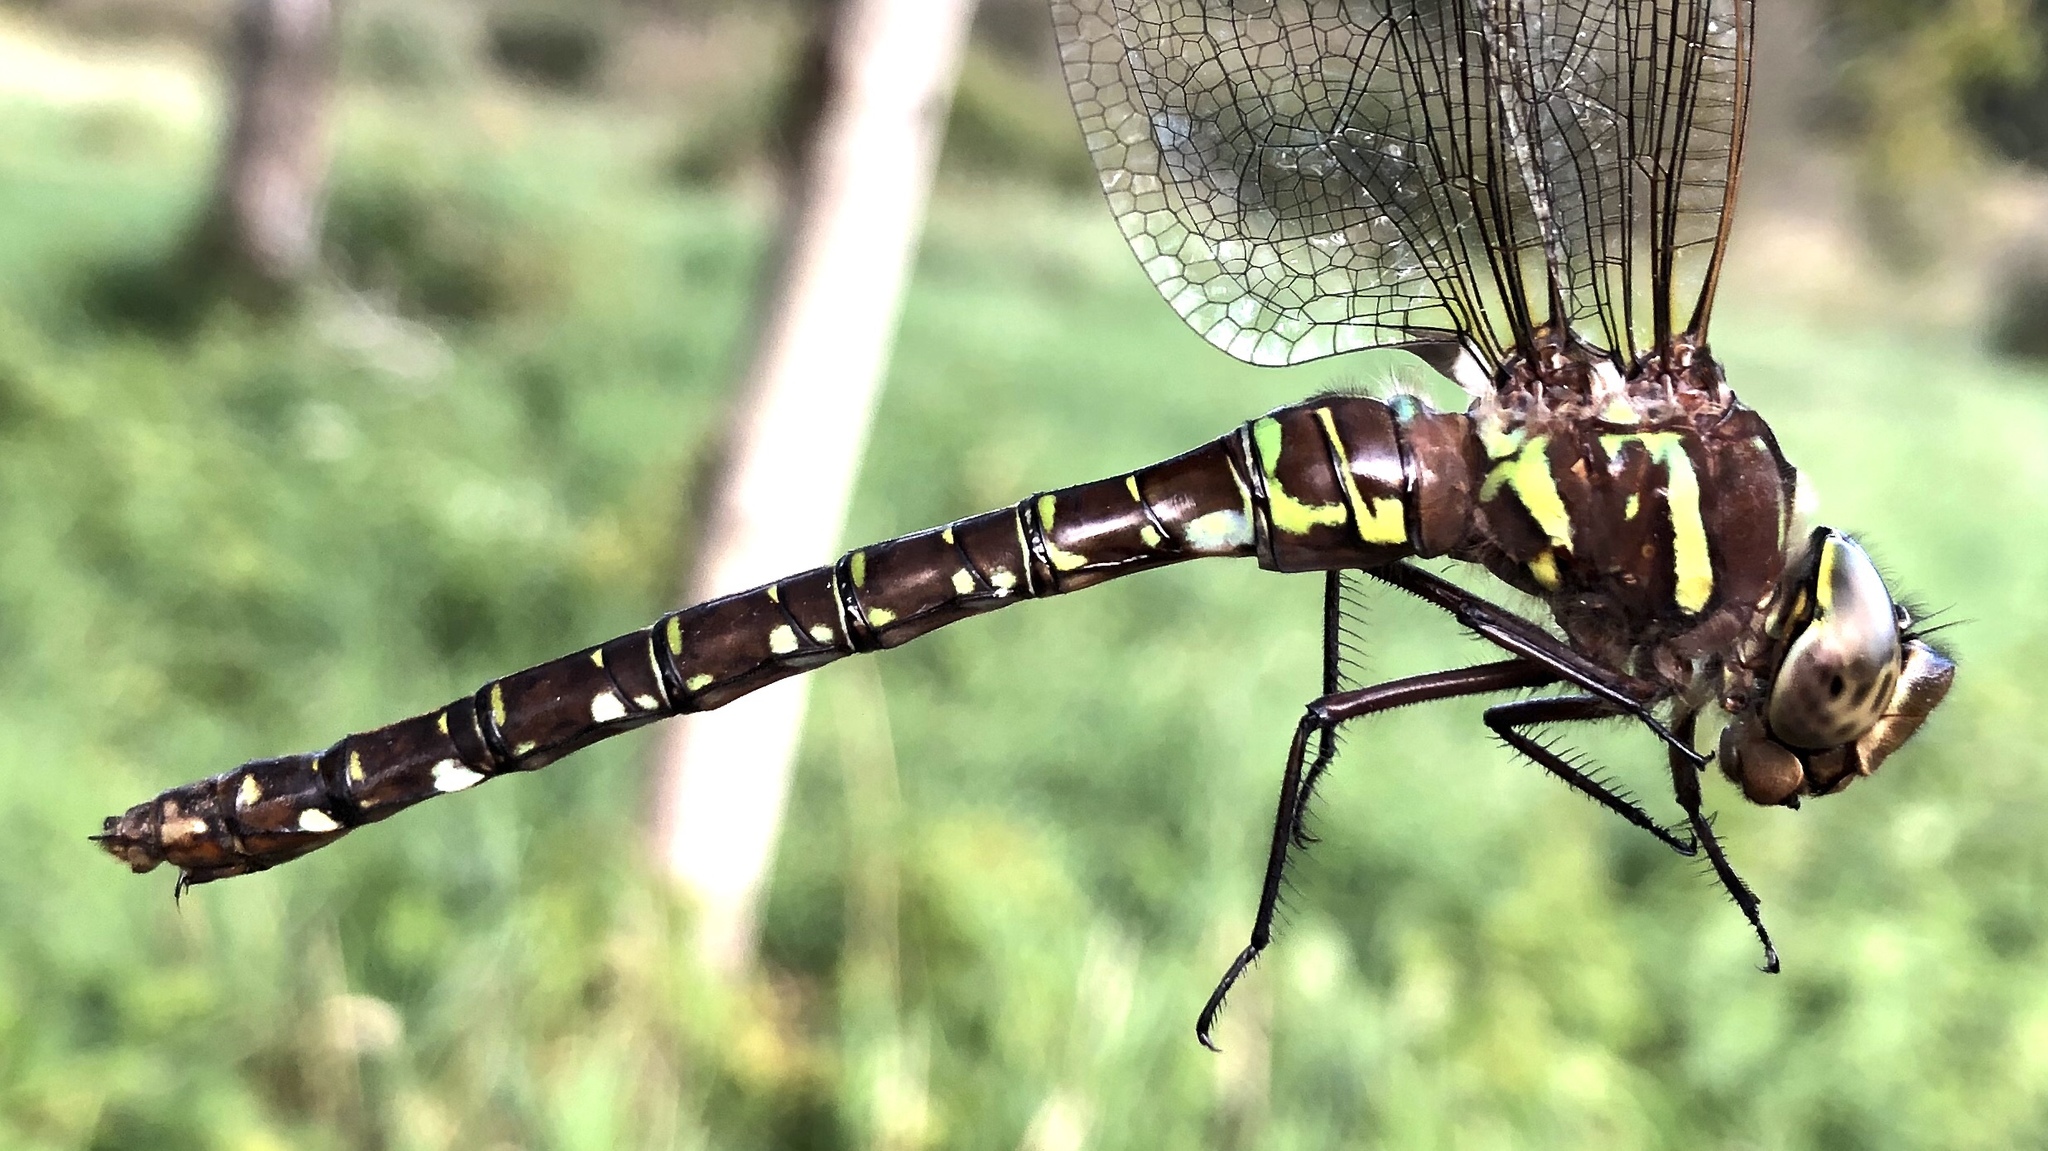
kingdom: Animalia
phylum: Arthropoda
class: Insecta
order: Odonata
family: Aeshnidae
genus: Aeshna
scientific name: Aeshna umbrosa
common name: Shadow darner
